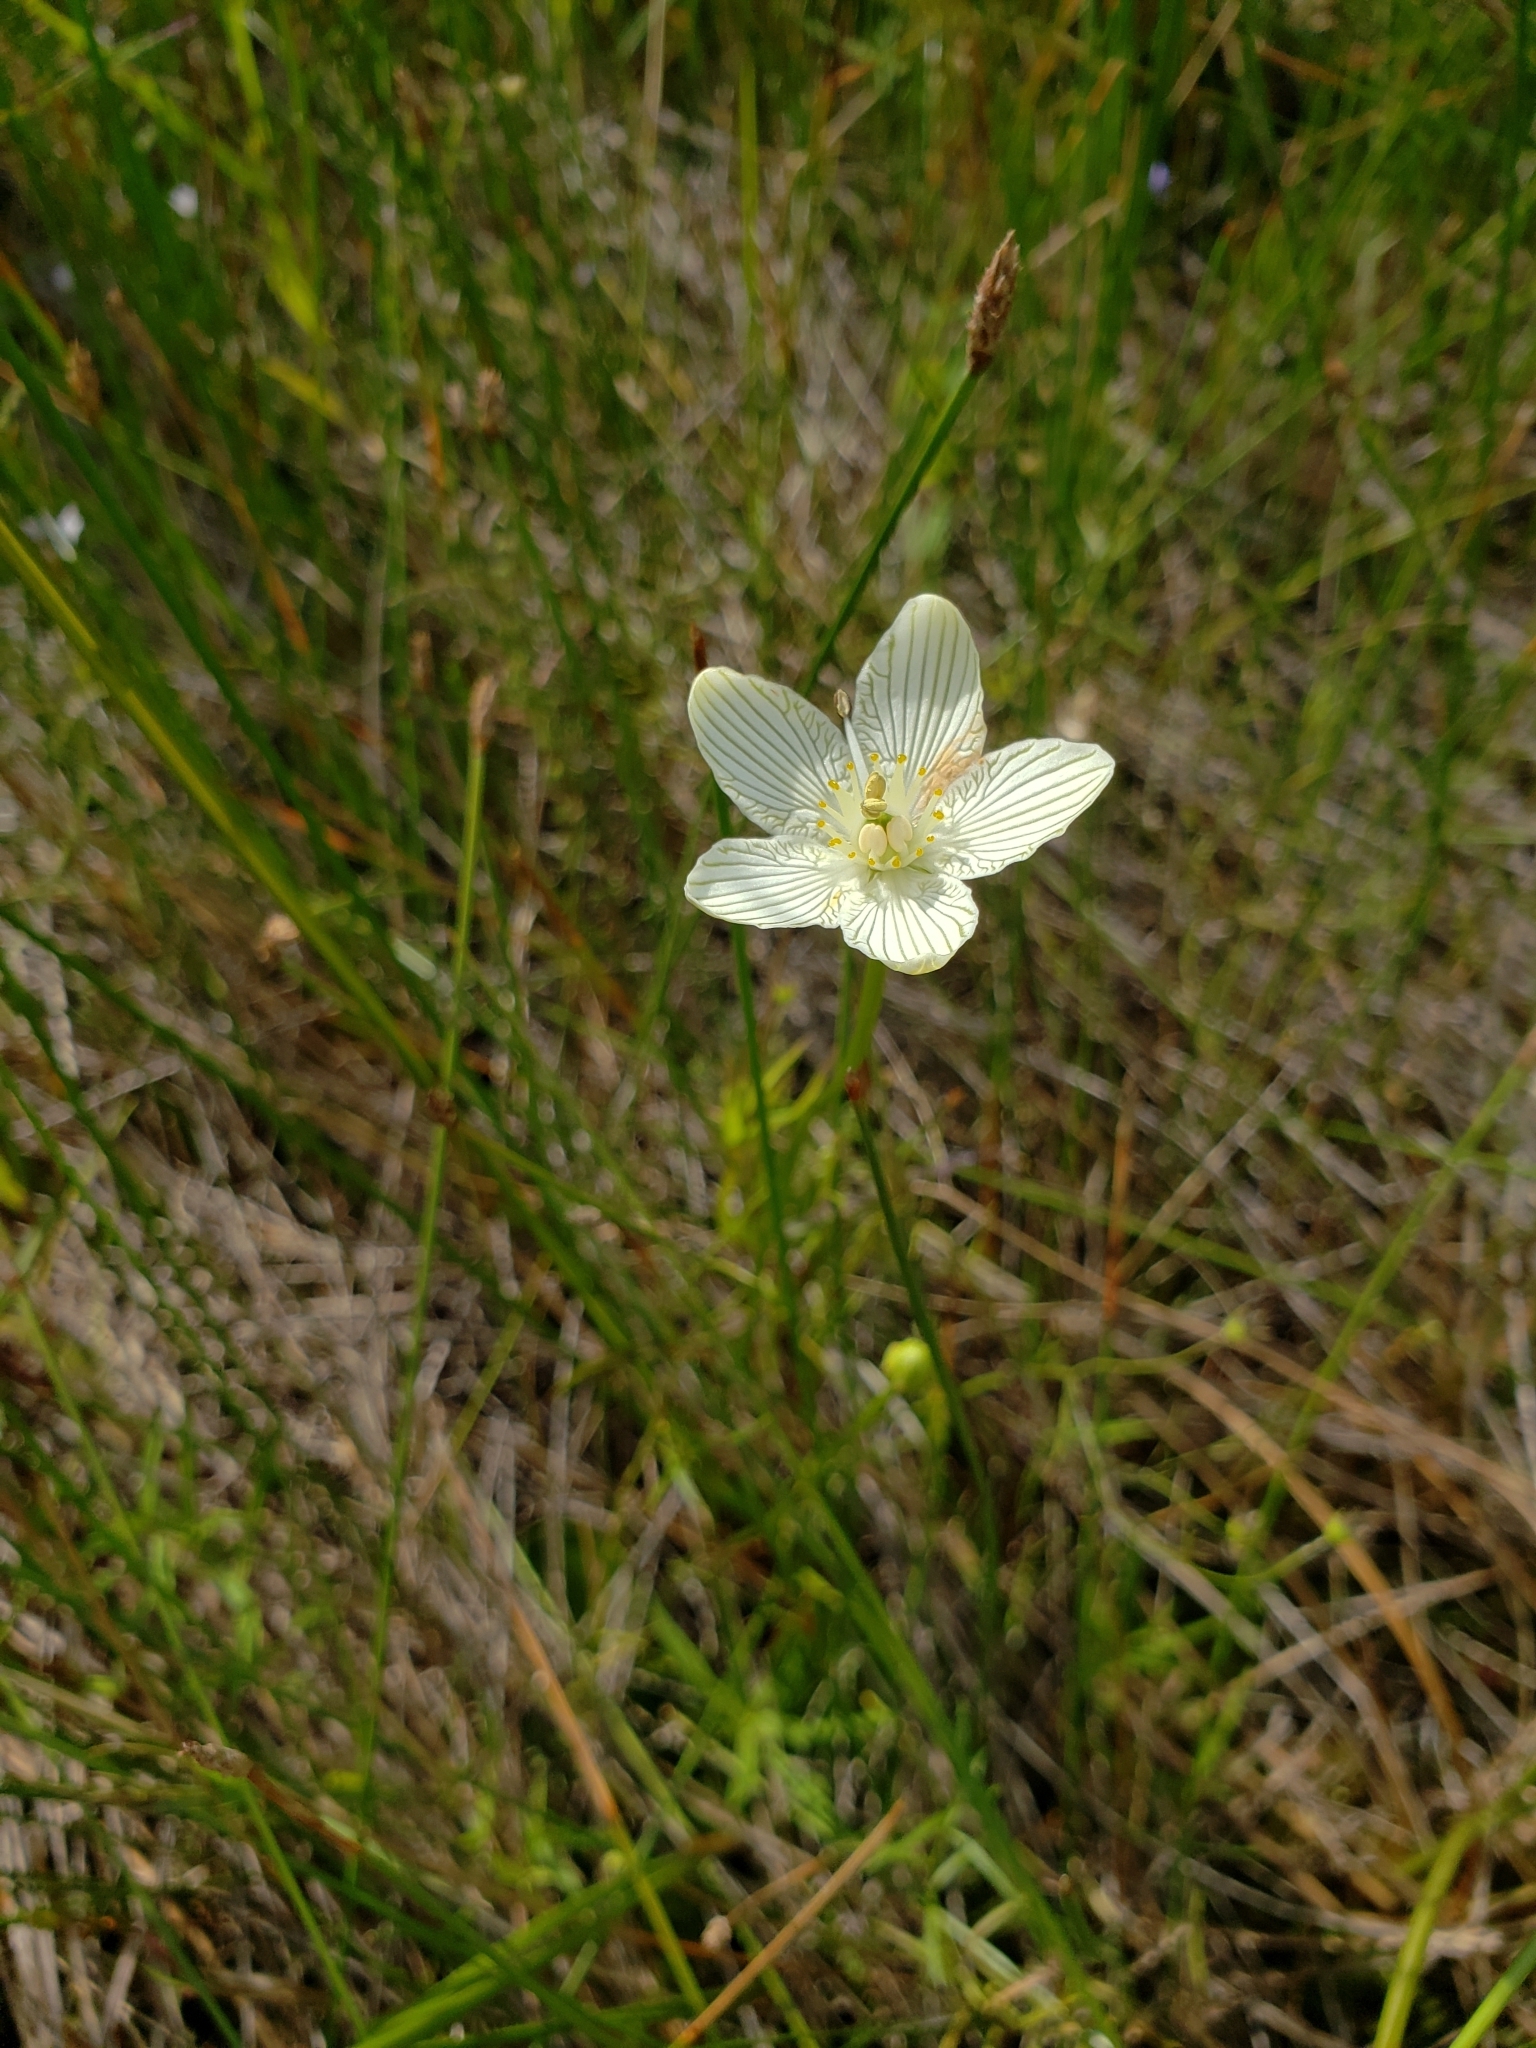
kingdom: Plantae
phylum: Tracheophyta
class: Magnoliopsida
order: Celastrales
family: Parnassiaceae
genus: Parnassia
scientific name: Parnassia glauca
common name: American grass-of-parnassus
